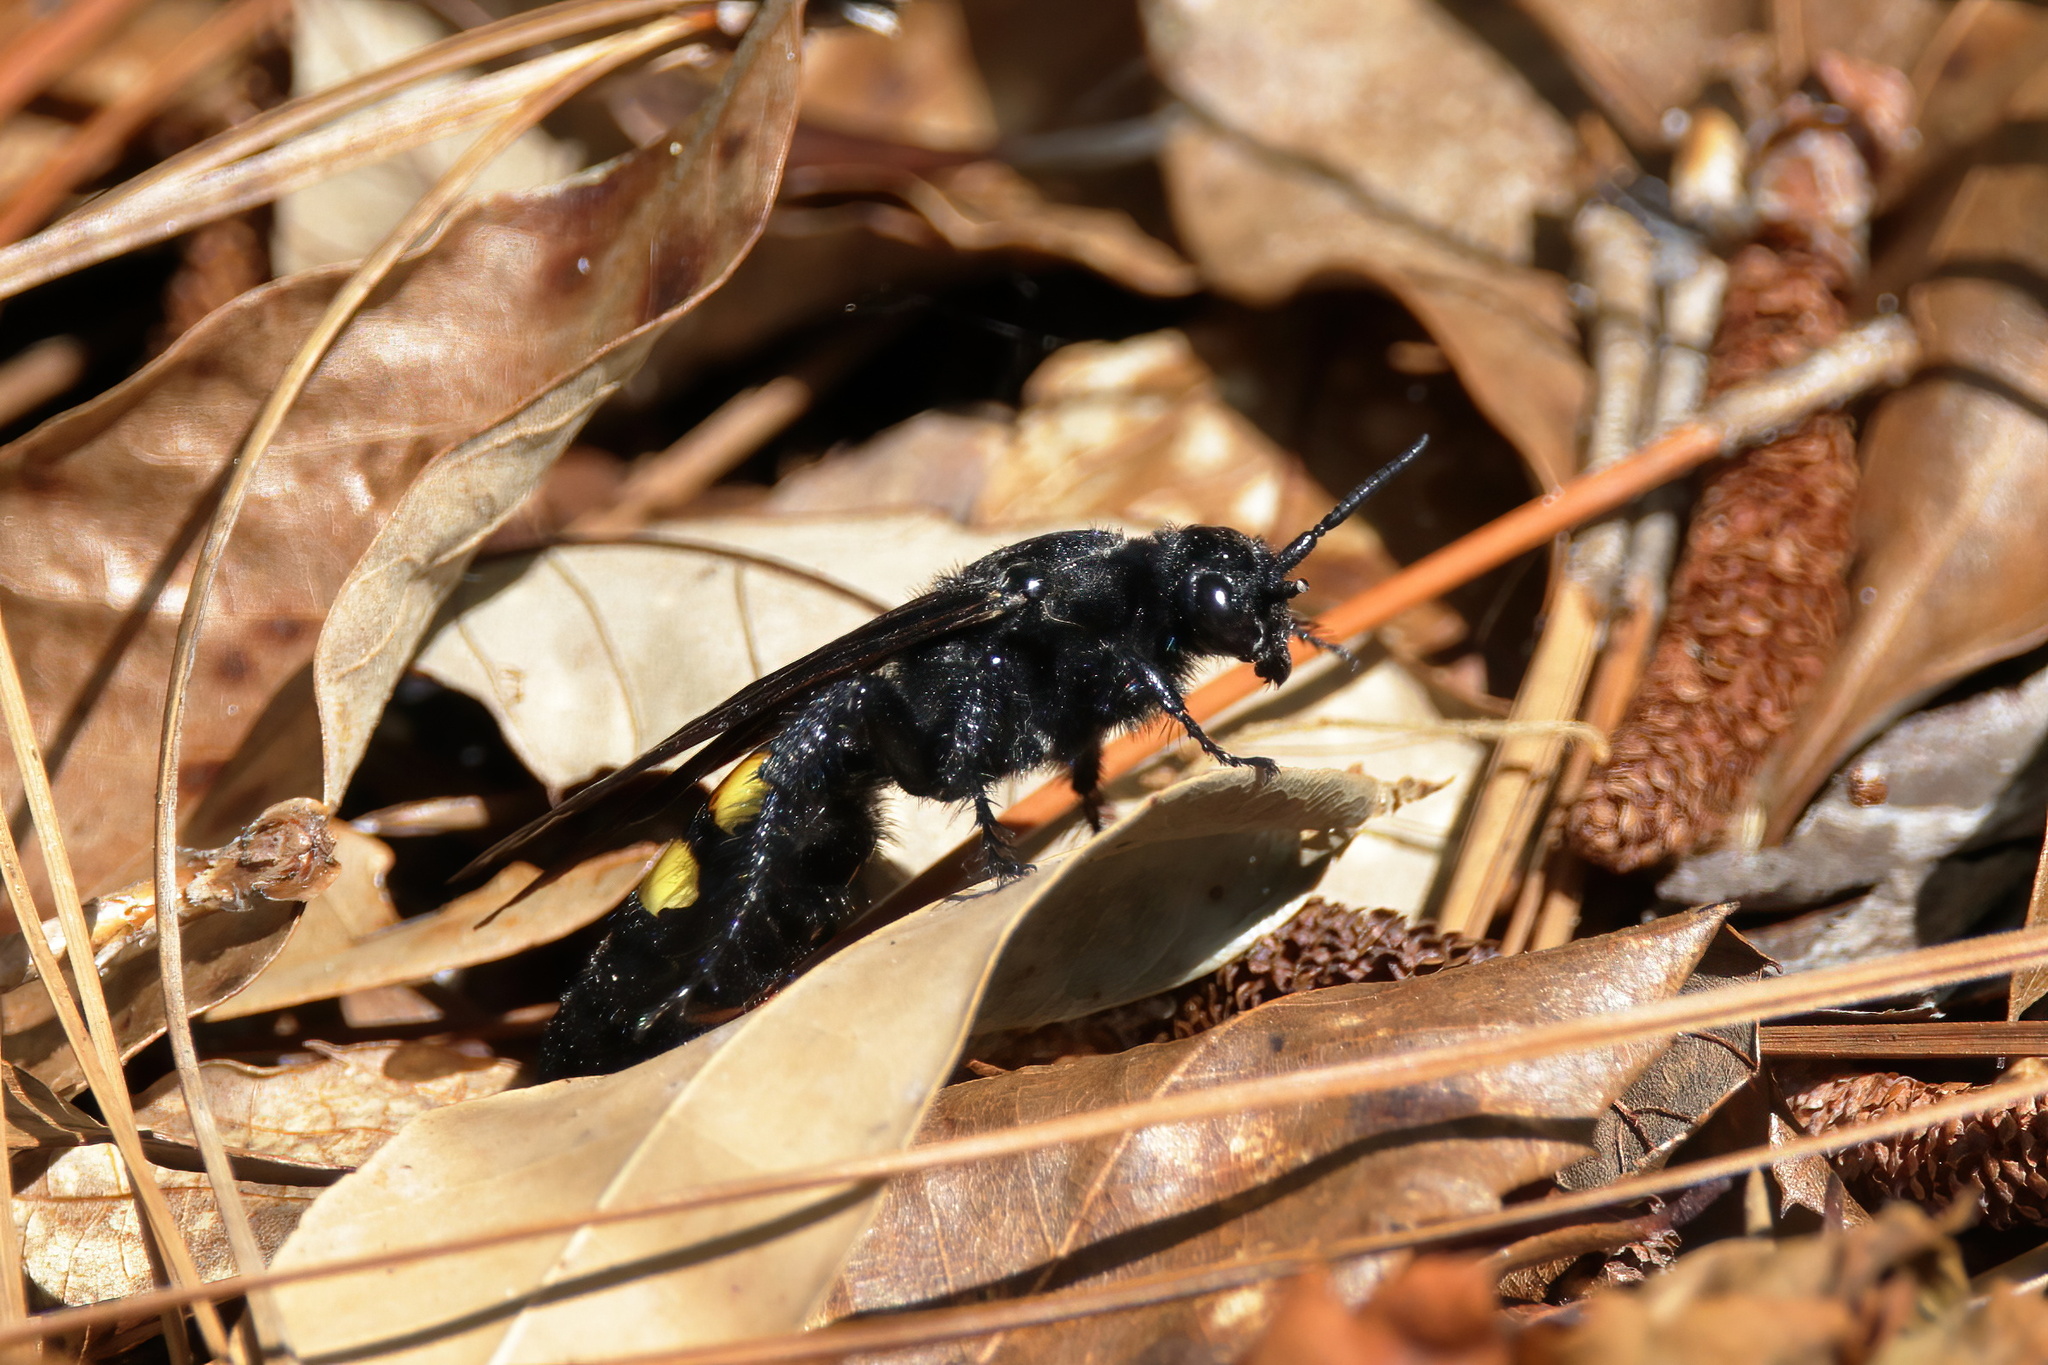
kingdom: Animalia
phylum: Arthropoda
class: Insecta
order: Hymenoptera
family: Scoliidae
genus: Pygodasis
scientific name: Pygodasis
